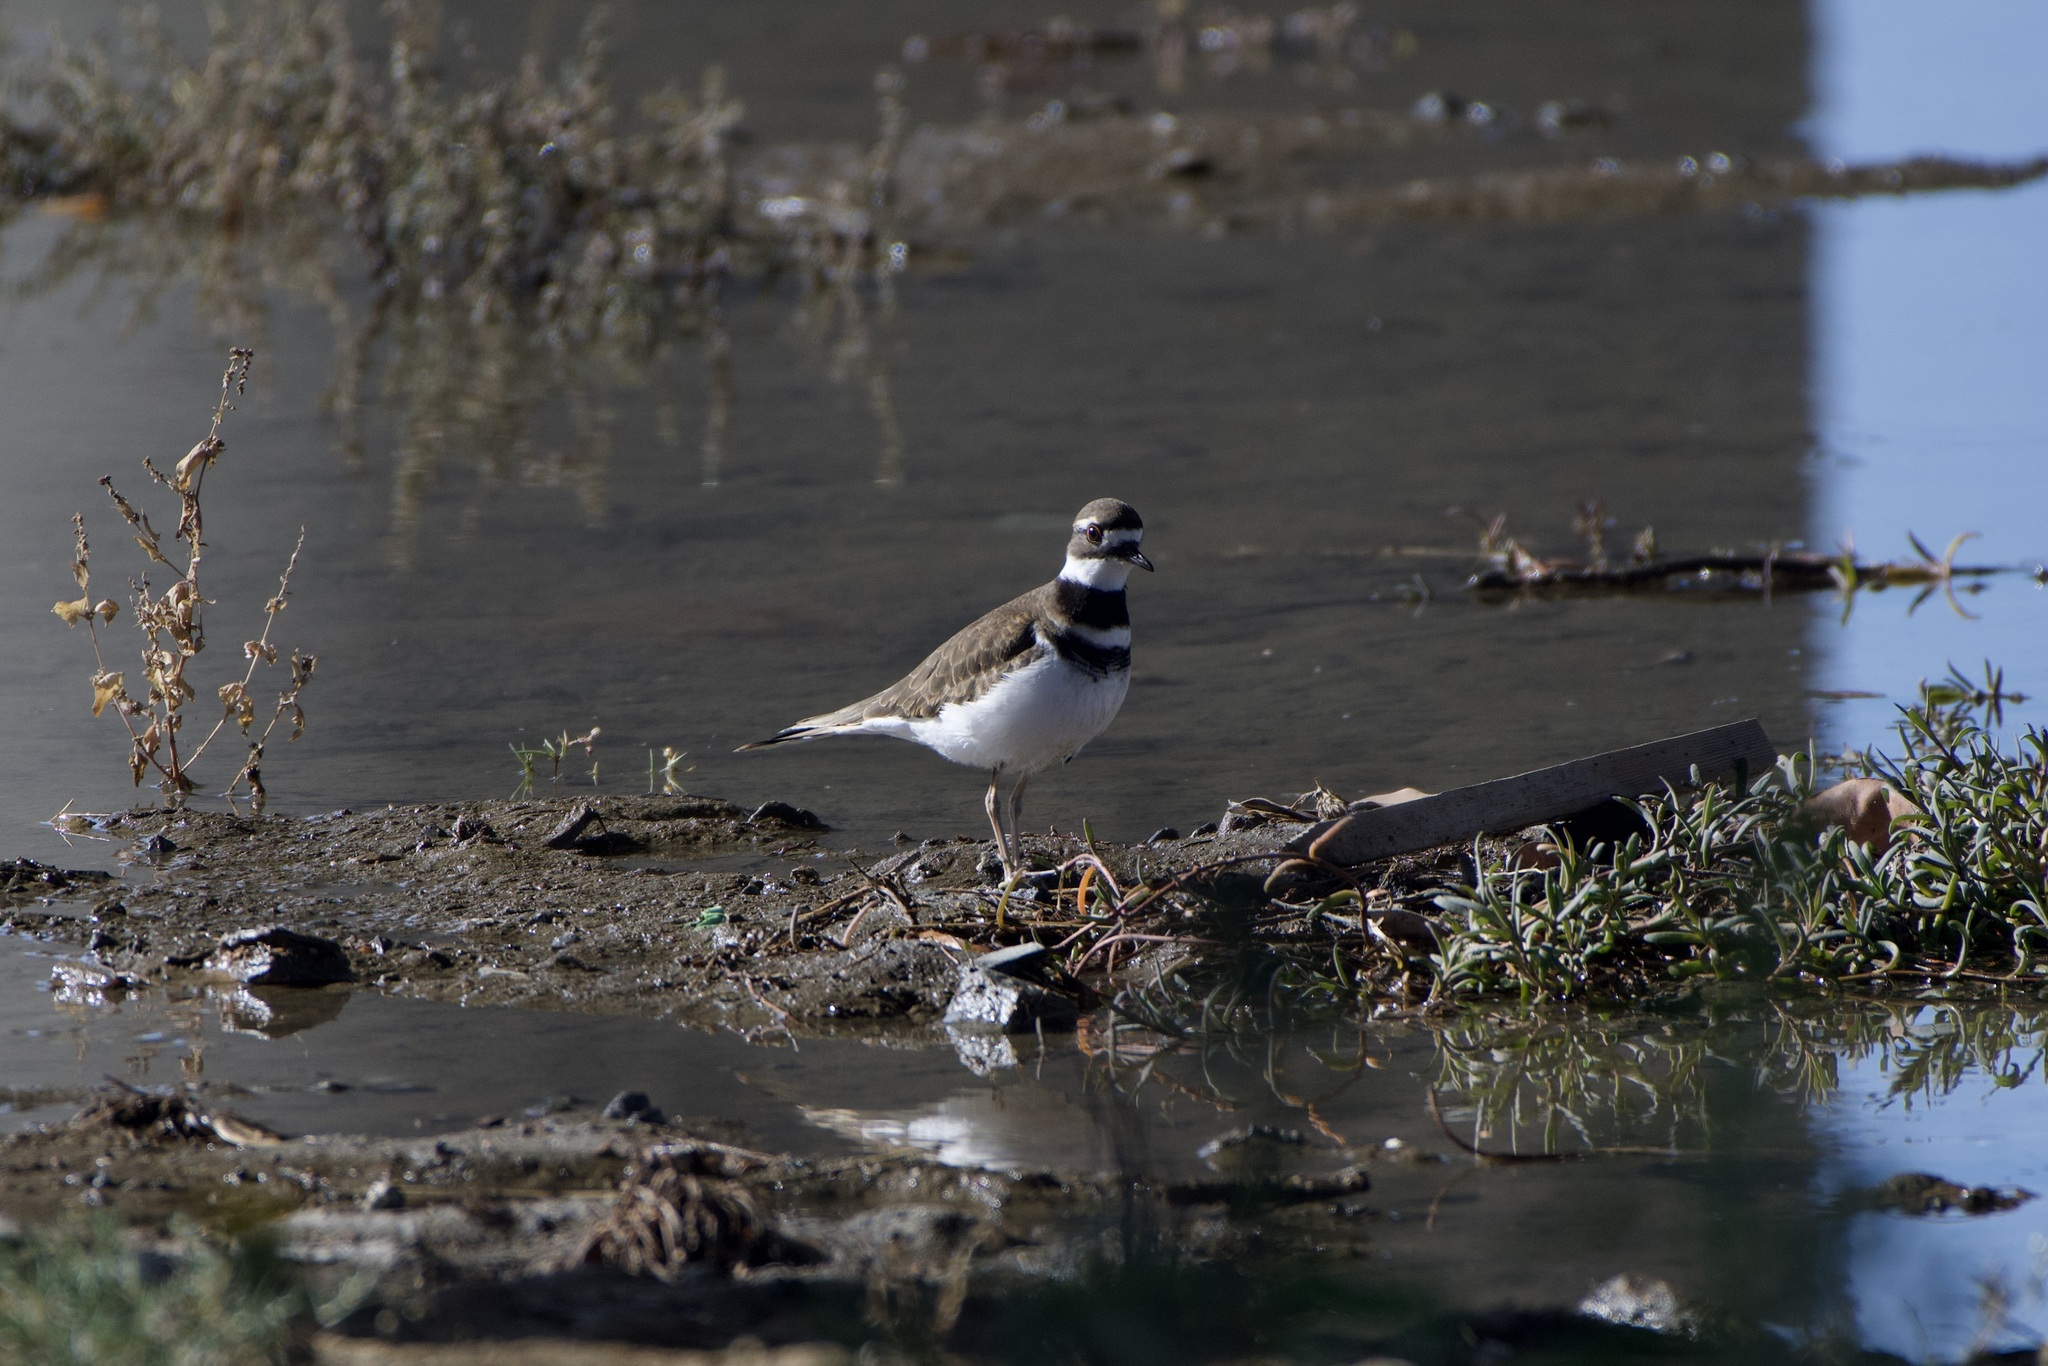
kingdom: Animalia
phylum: Chordata
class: Aves
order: Charadriiformes
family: Charadriidae
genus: Charadrius
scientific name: Charadrius vociferus
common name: Killdeer
